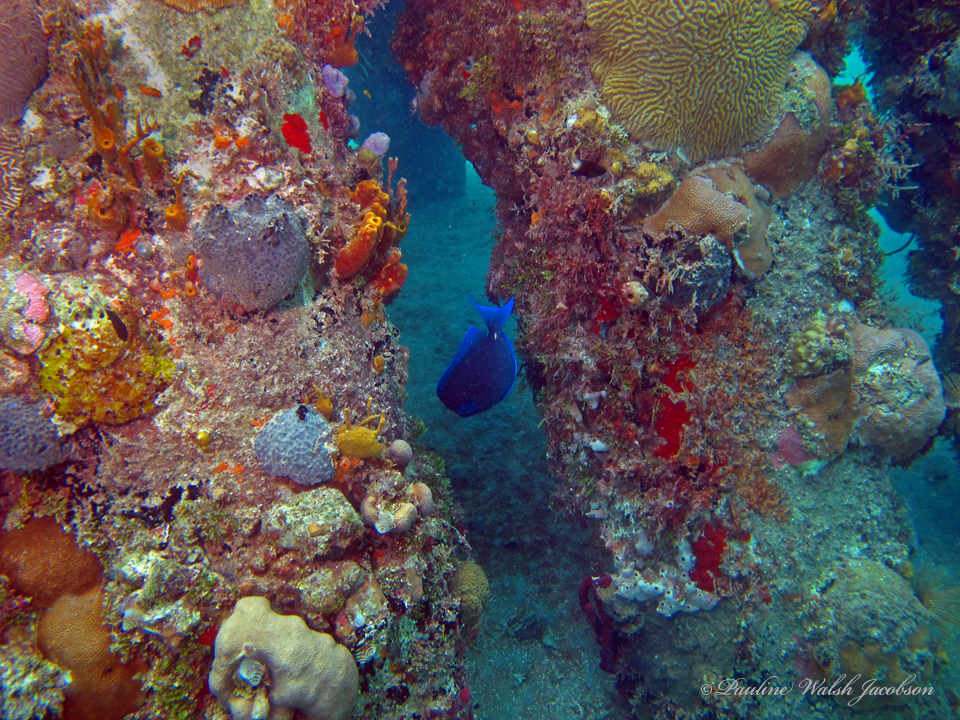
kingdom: Animalia
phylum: Chordata
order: Perciformes
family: Acanthuridae
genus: Acanthurus
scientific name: Acanthurus coeruleus
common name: Blue tang
